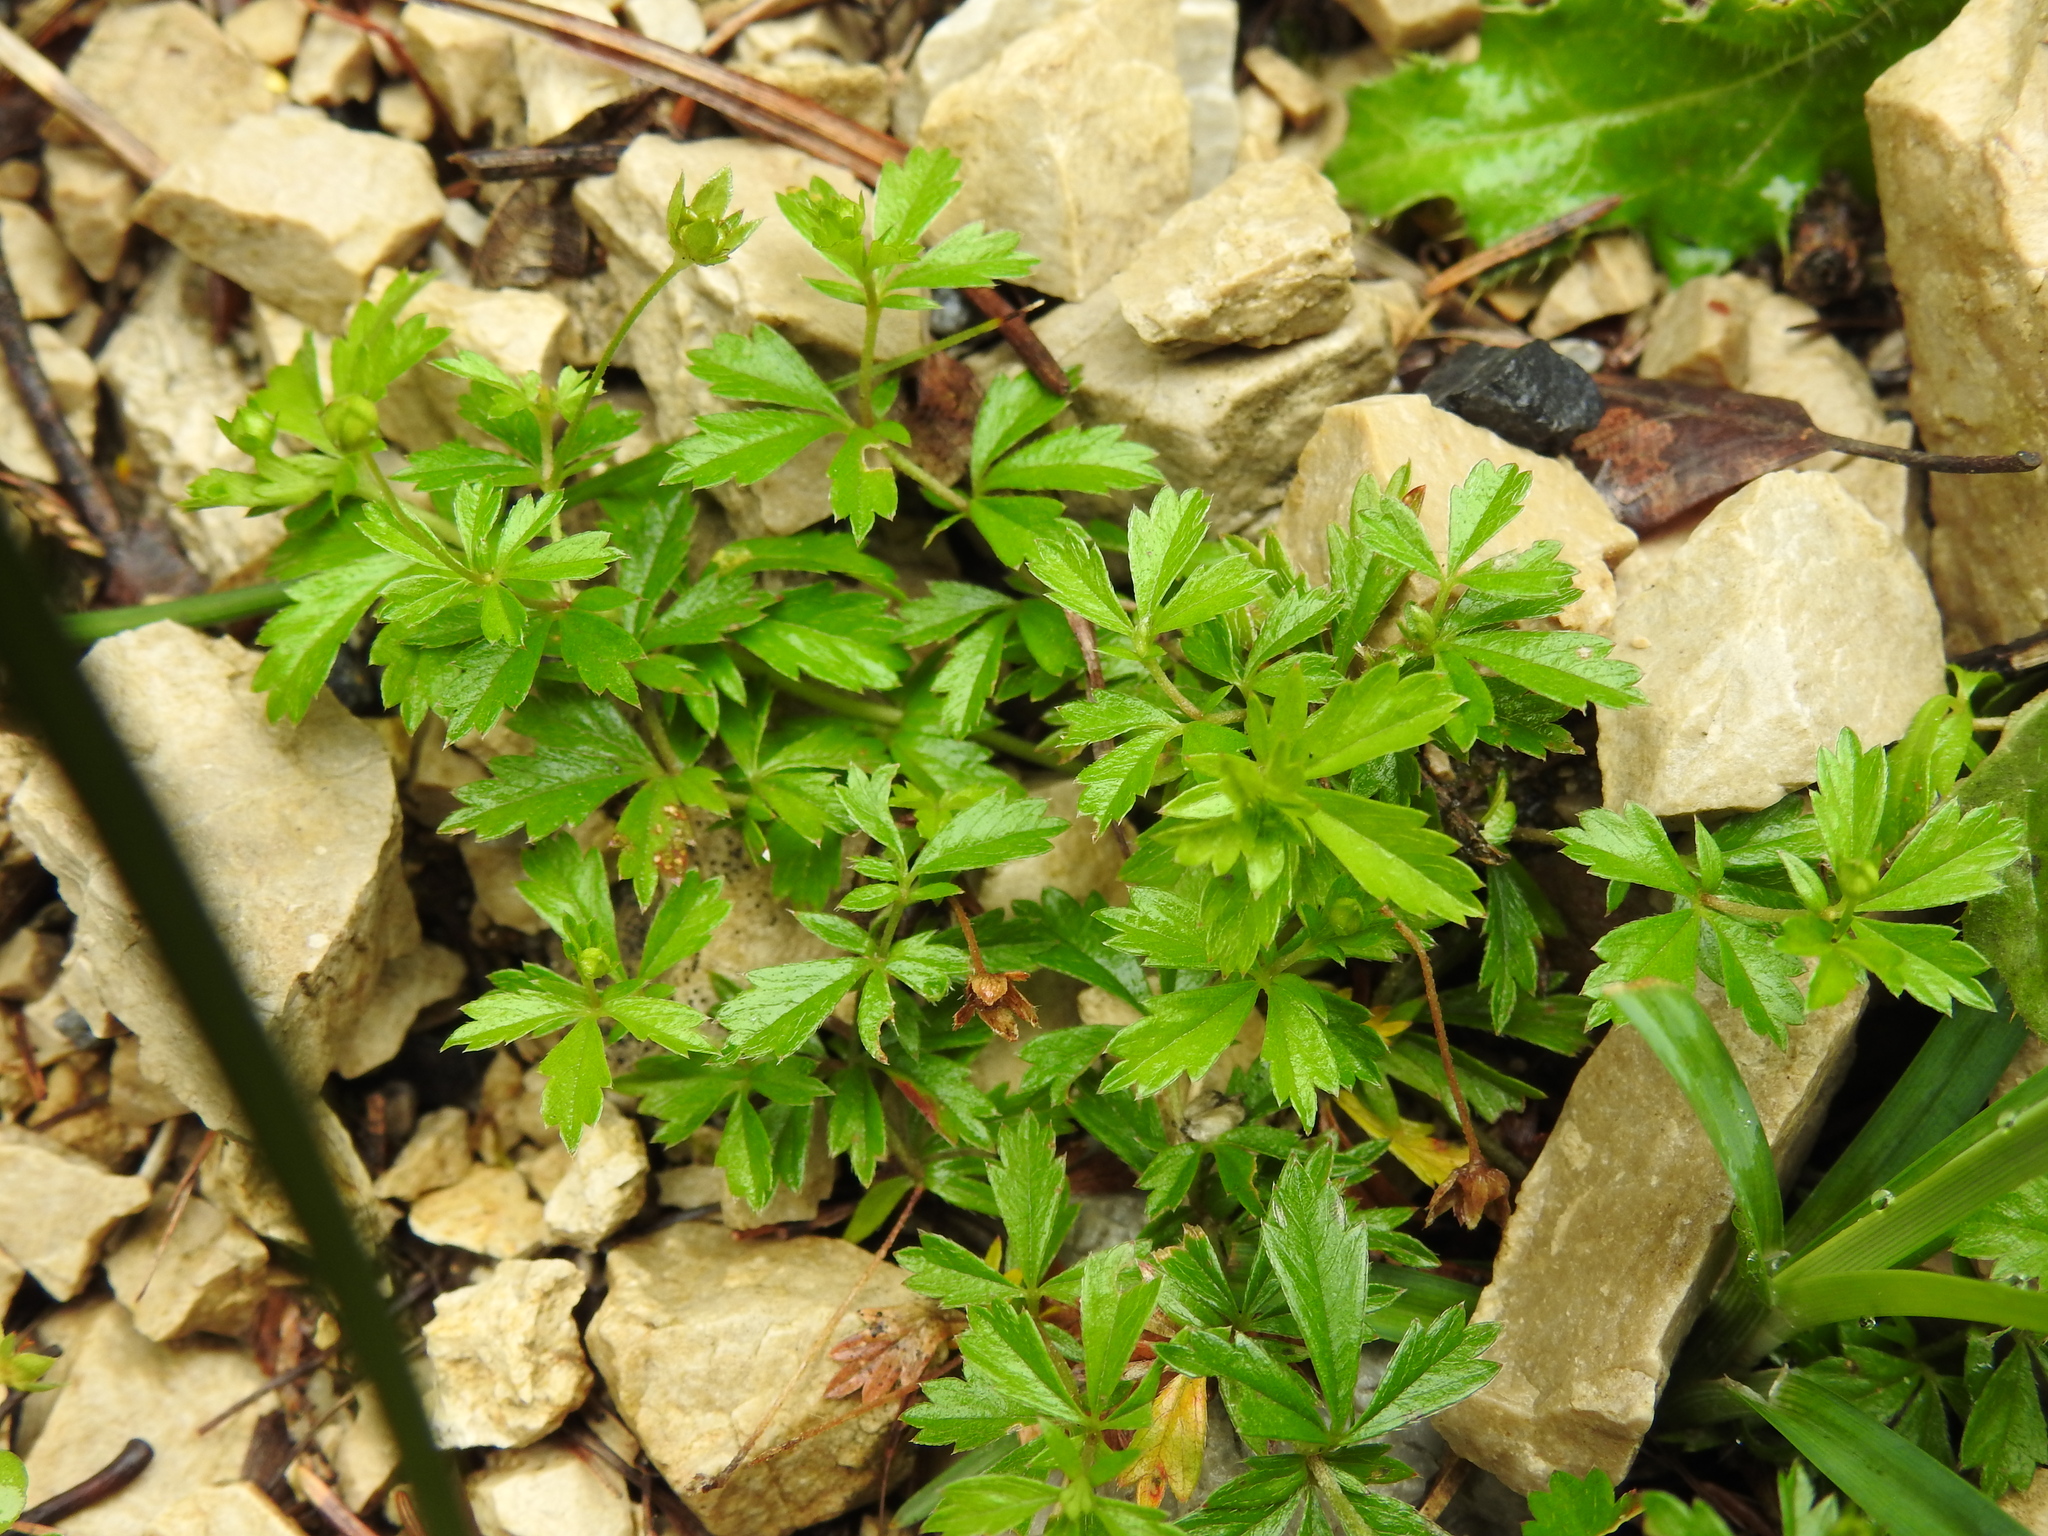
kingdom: Plantae
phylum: Tracheophyta
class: Magnoliopsida
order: Rosales
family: Rosaceae
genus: Potentilla
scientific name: Potentilla erecta
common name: Tormentil
